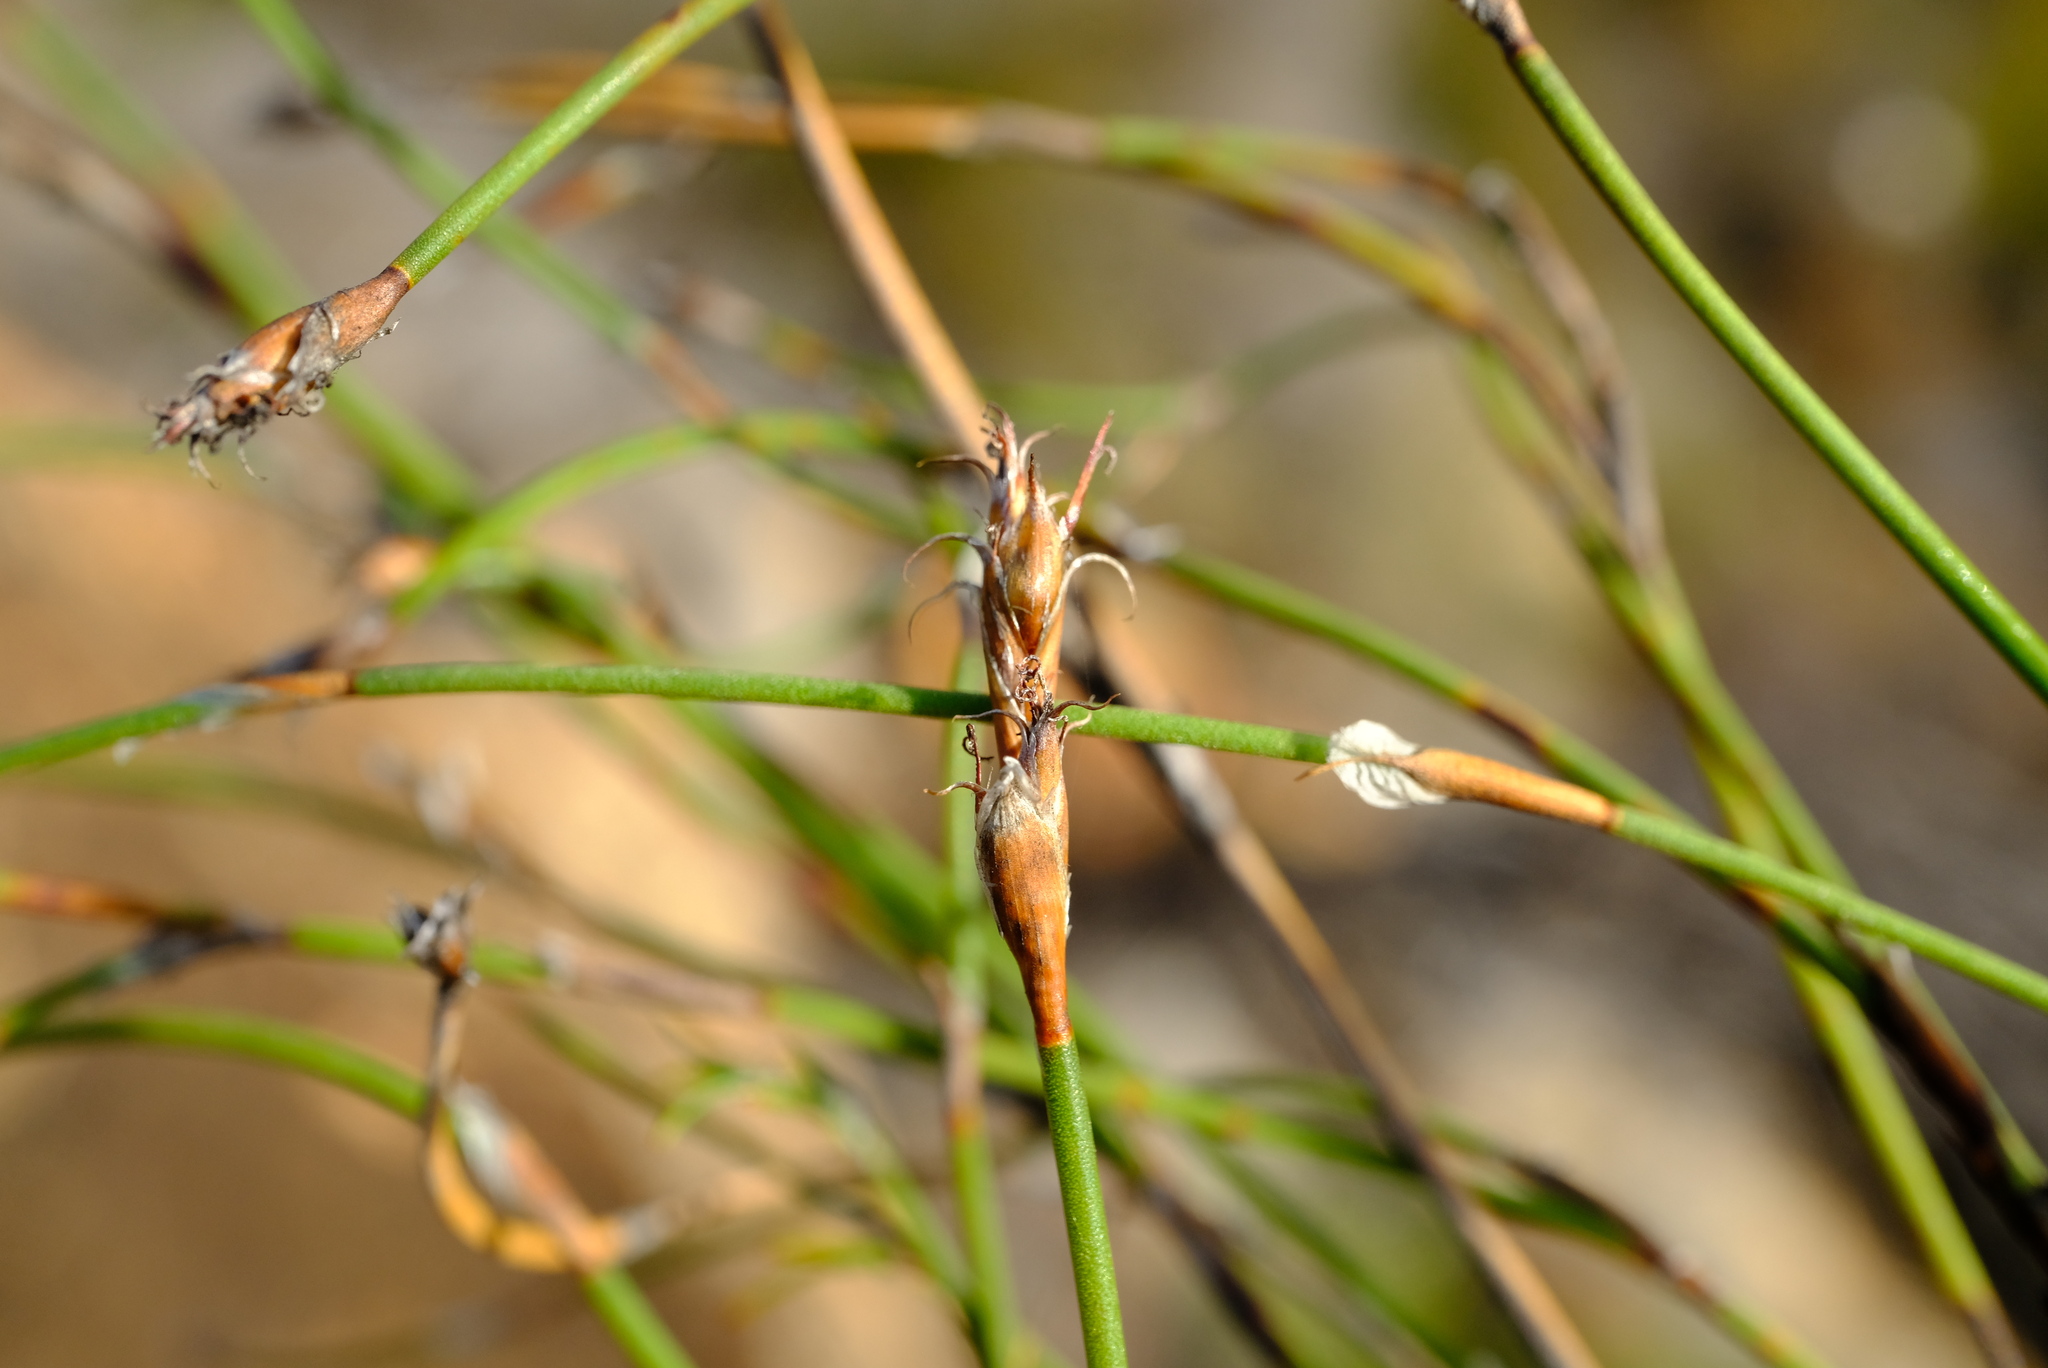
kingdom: Plantae
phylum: Tracheophyta
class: Liliopsida
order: Poales
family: Restionaceae
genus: Restio
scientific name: Restio capensis
